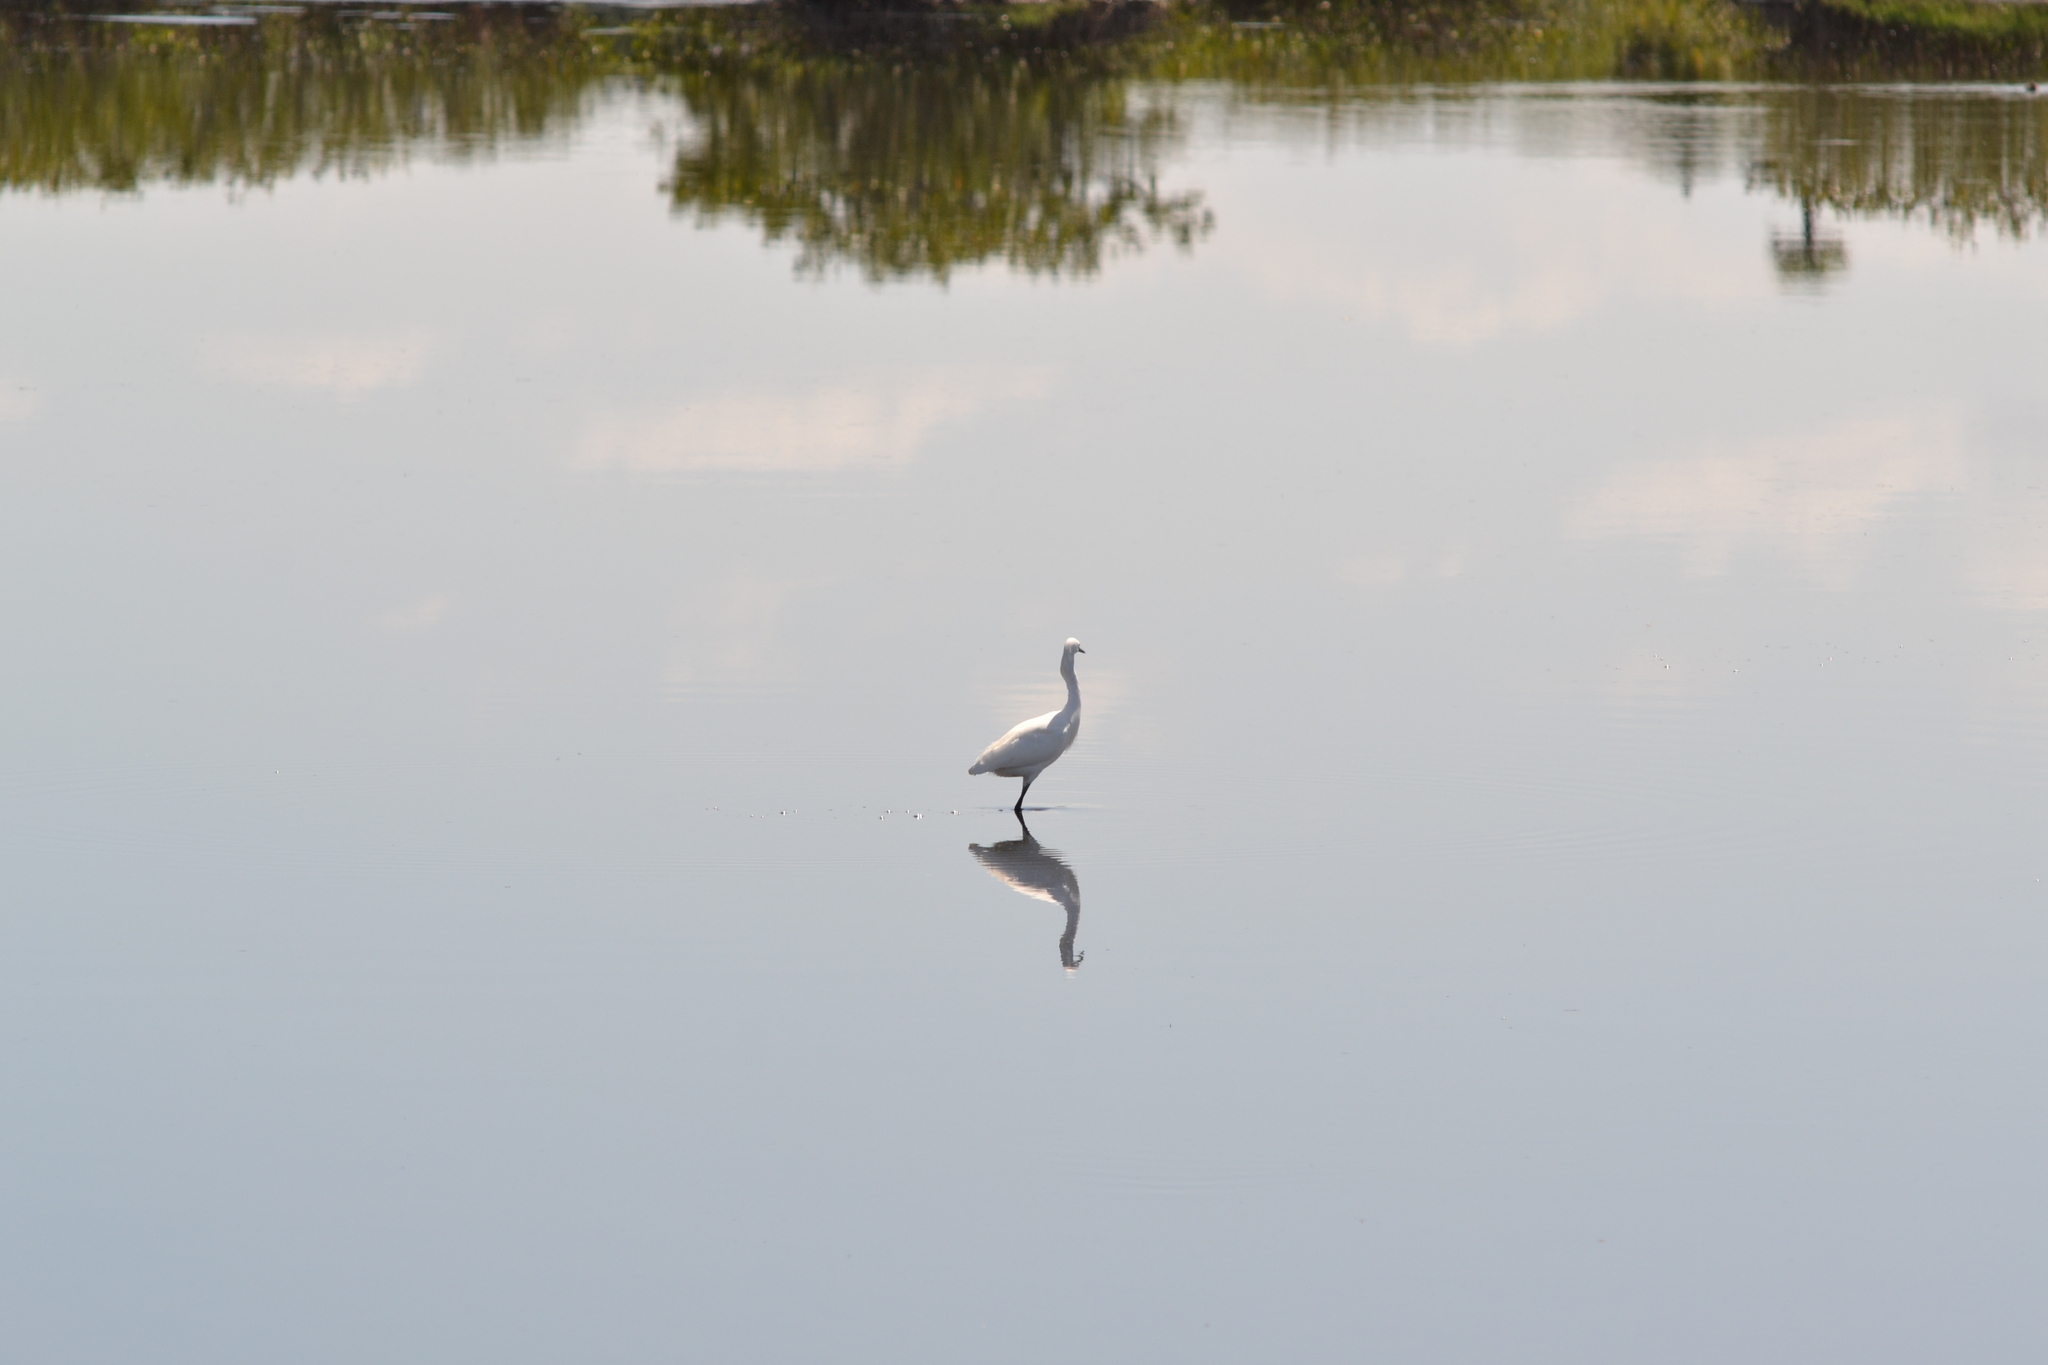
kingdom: Animalia
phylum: Chordata
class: Aves
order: Pelecaniformes
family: Ardeidae
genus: Egretta
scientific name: Egretta thula
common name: Snowy egret
